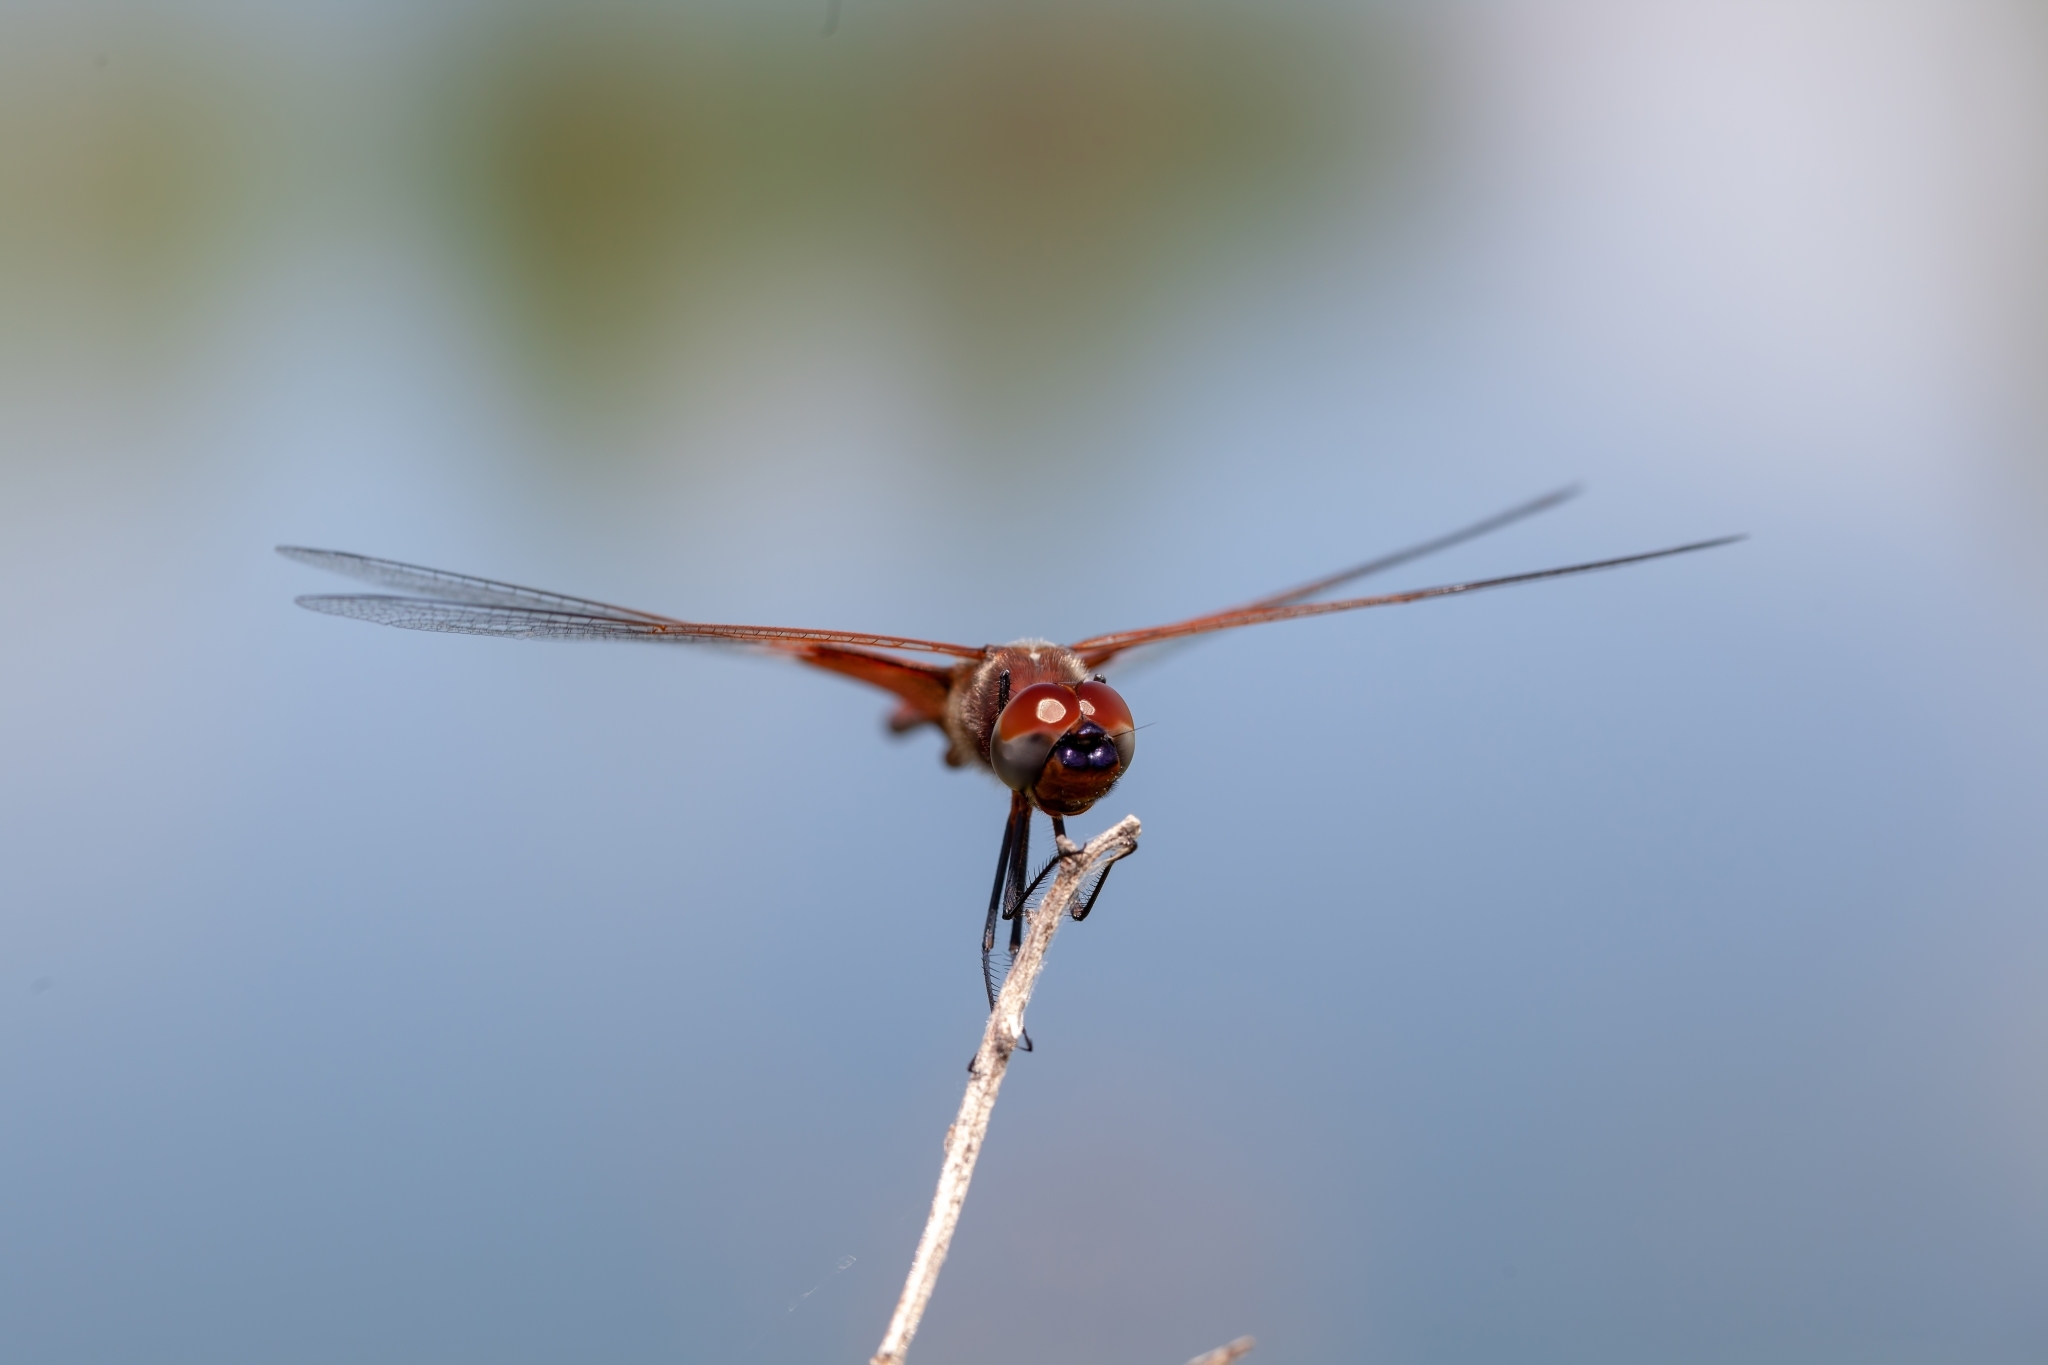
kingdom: Animalia
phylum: Arthropoda
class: Insecta
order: Odonata
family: Libellulidae
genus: Tramea
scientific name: Tramea carolina
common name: Carolina saddlebags
